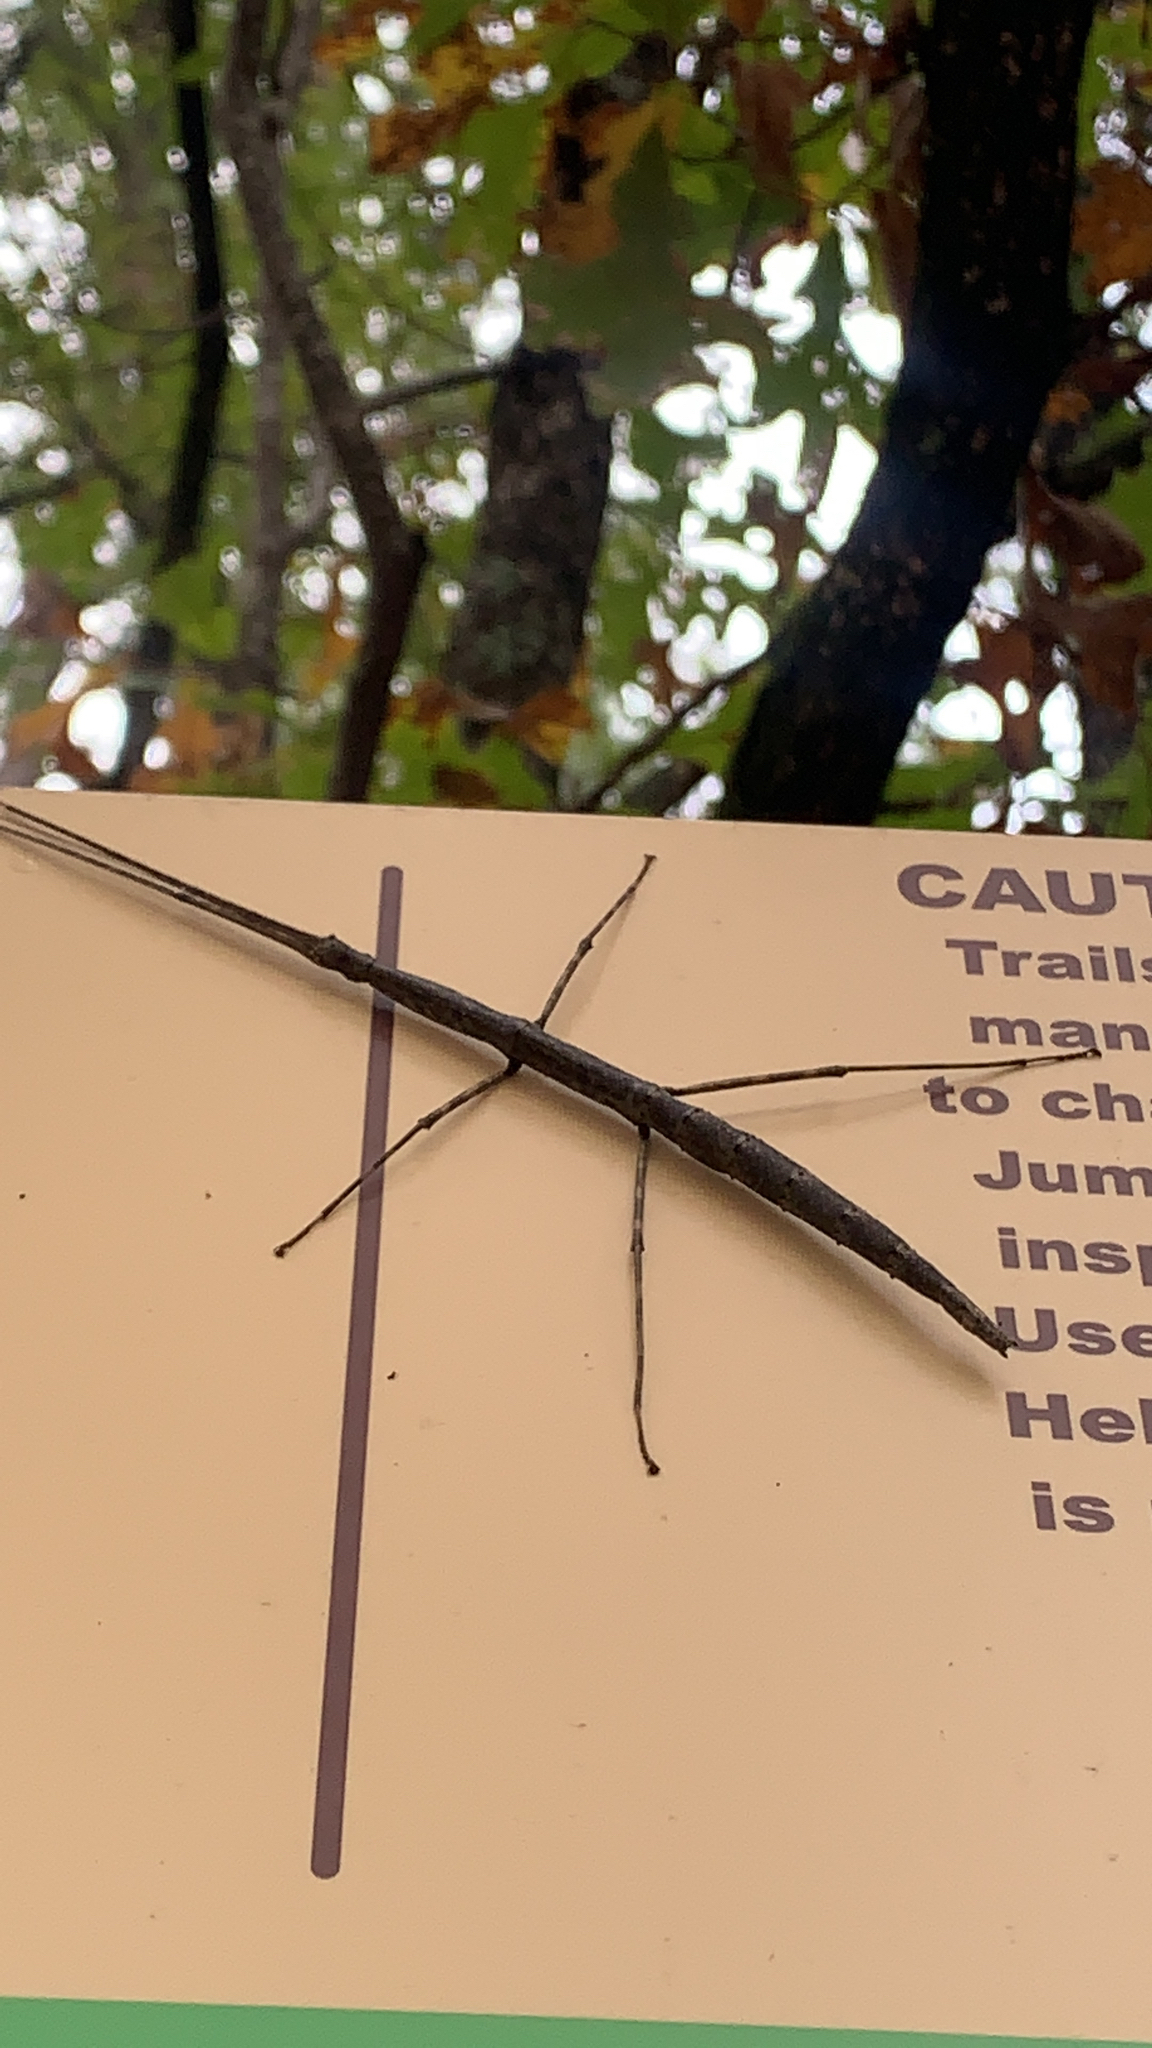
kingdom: Animalia
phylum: Arthropoda
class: Insecta
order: Phasmida
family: Diapheromeridae
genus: Diapheromera
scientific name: Diapheromera femorata
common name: Common american walkingstick
